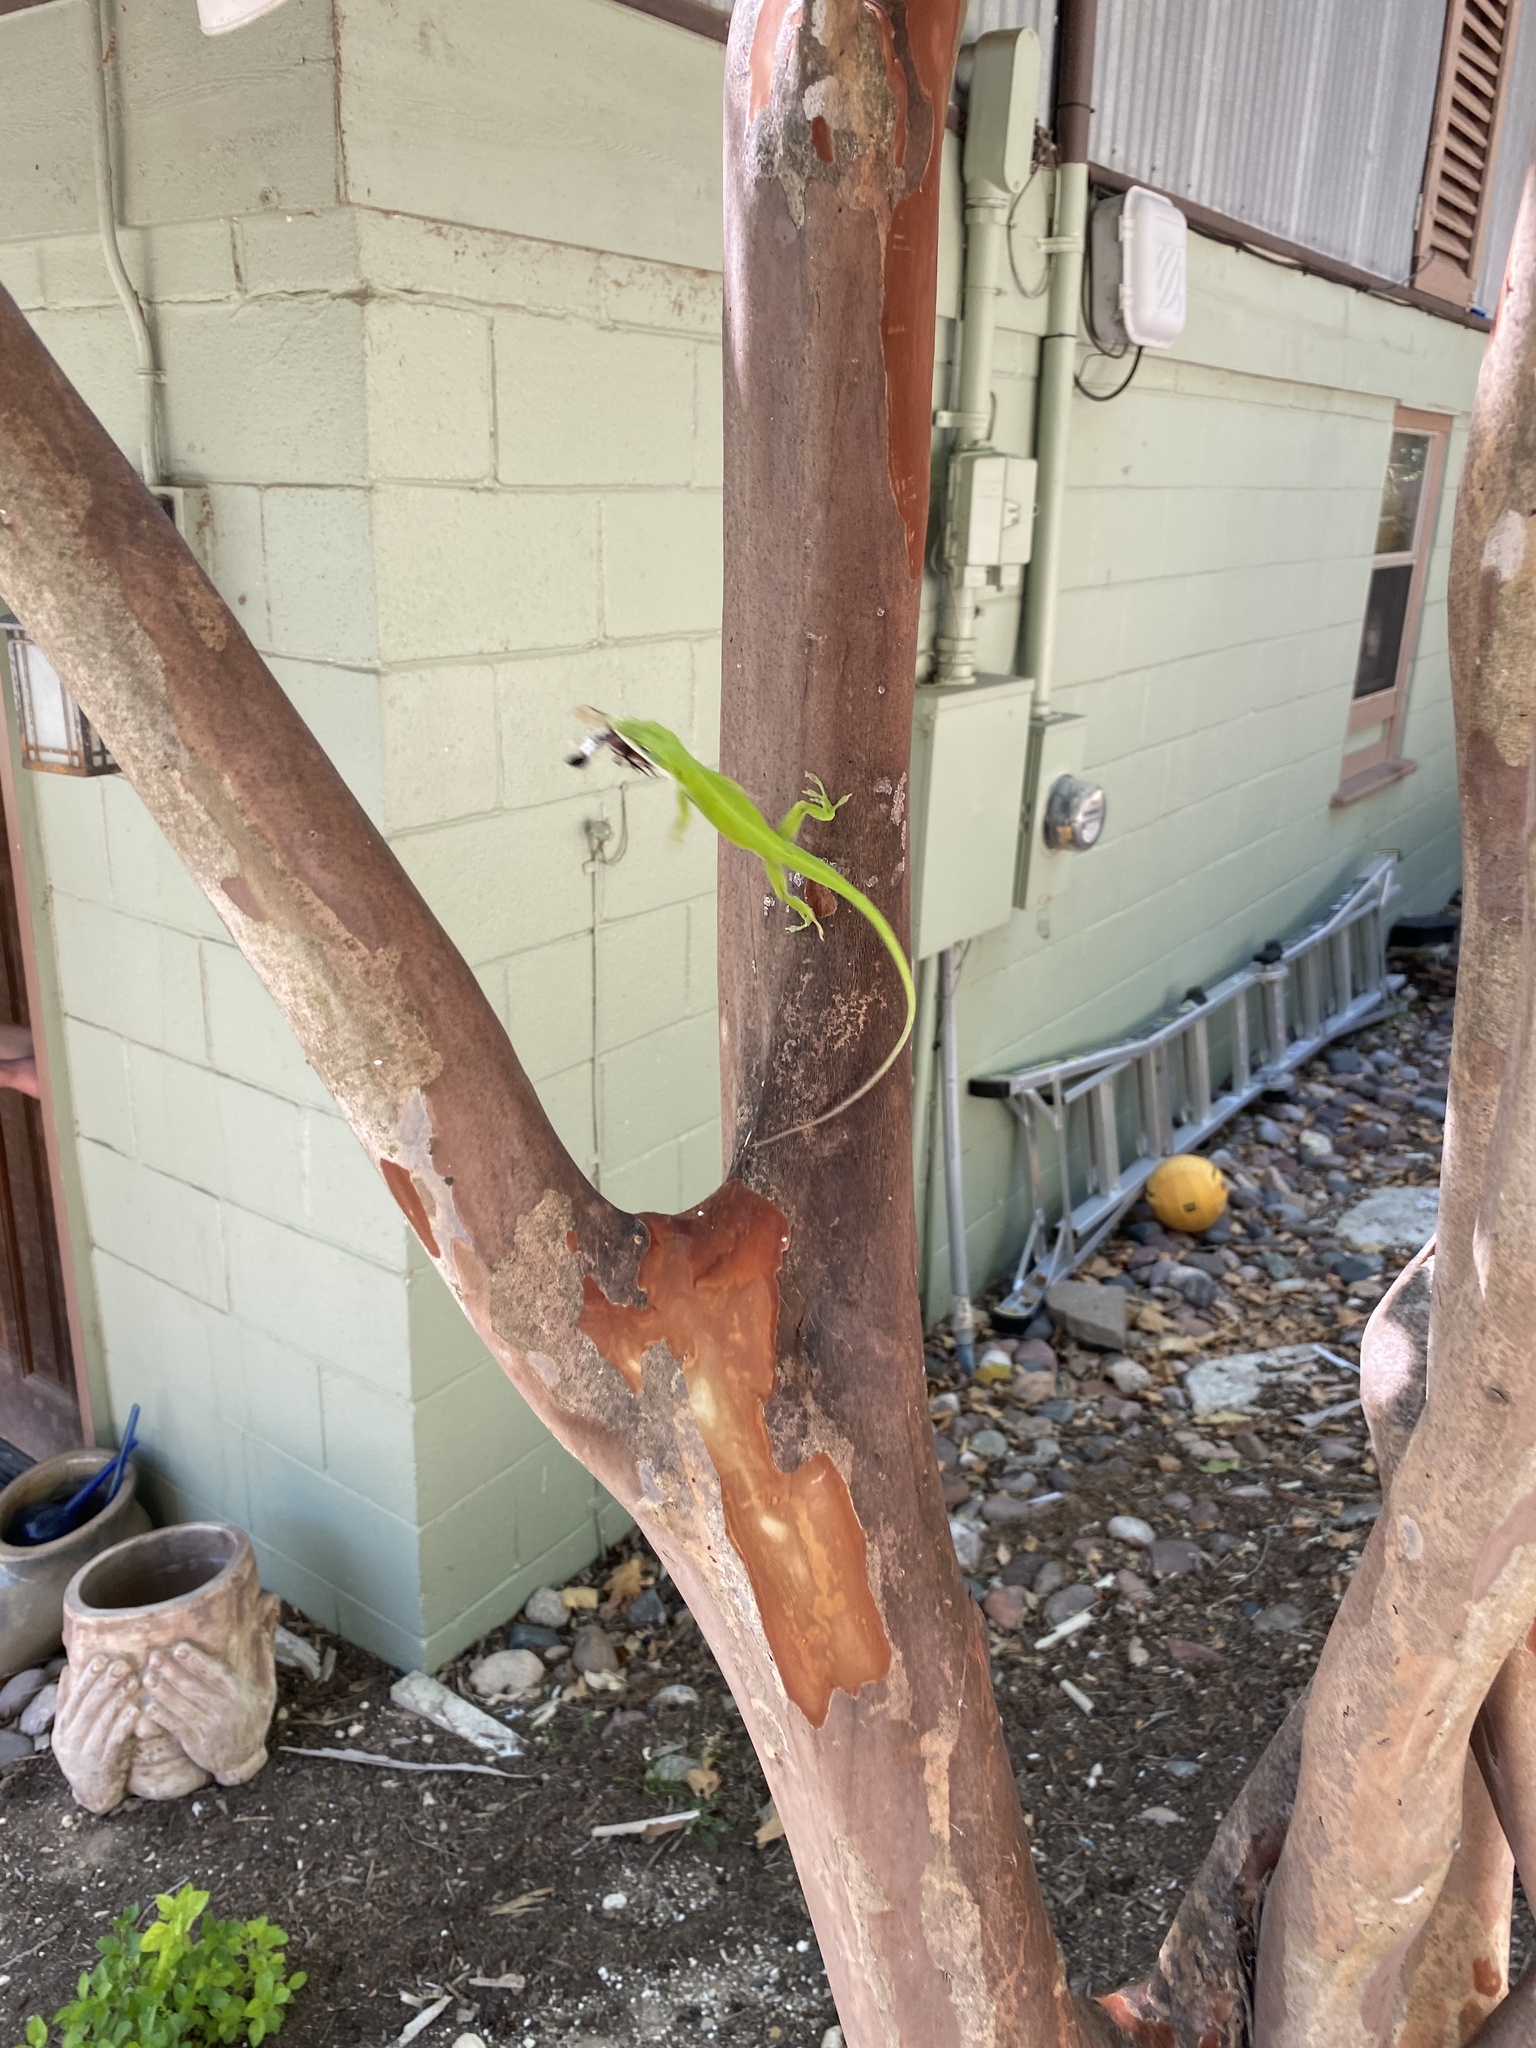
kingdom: Animalia
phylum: Chordata
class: Squamata
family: Dactyloidae
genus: Anolis
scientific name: Anolis carolinensis
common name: Green anole
